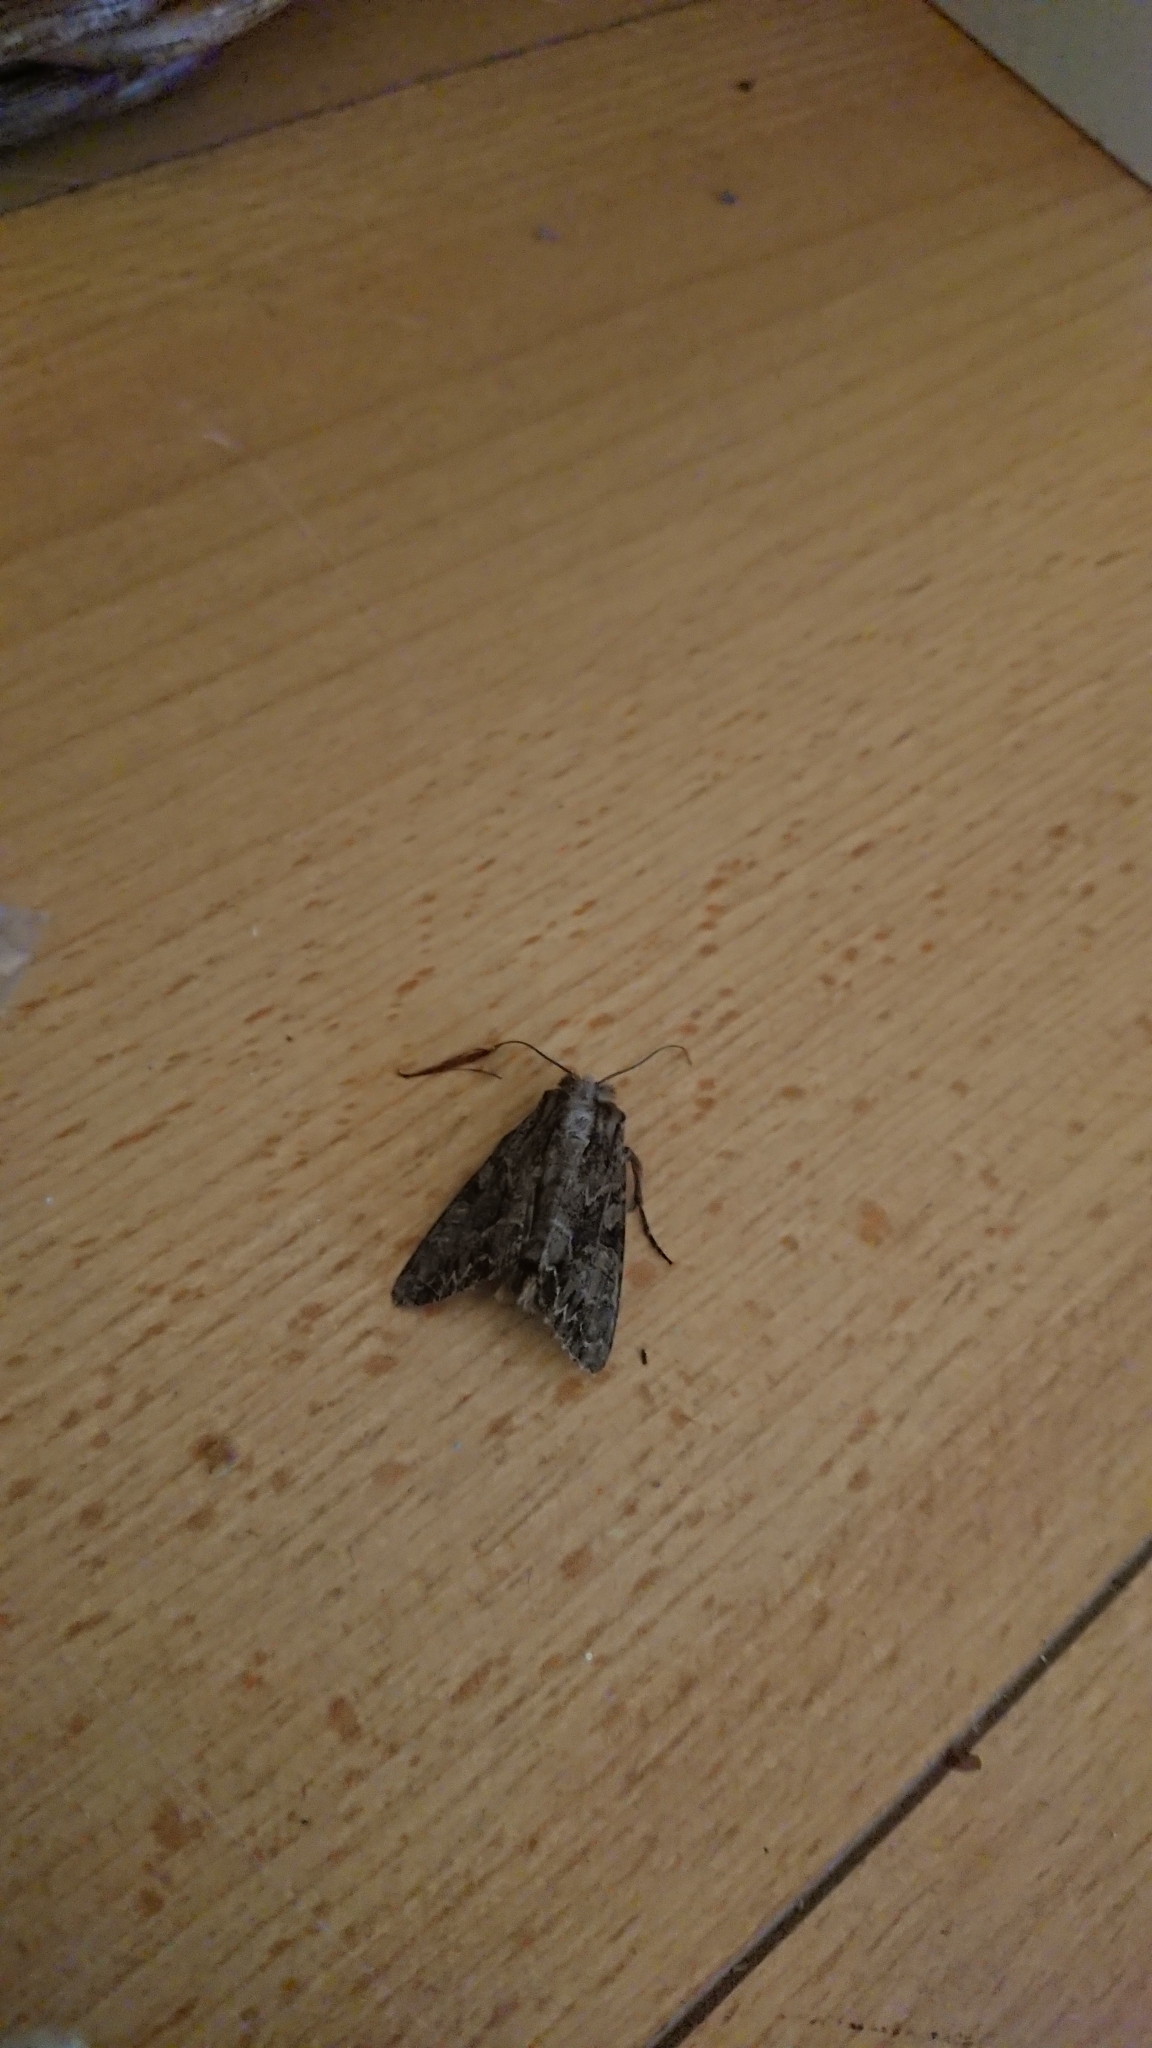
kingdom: Animalia
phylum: Arthropoda
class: Insecta
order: Lepidoptera
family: Noctuidae
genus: Apamea
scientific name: Apamea monoglypha
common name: Dark arches
